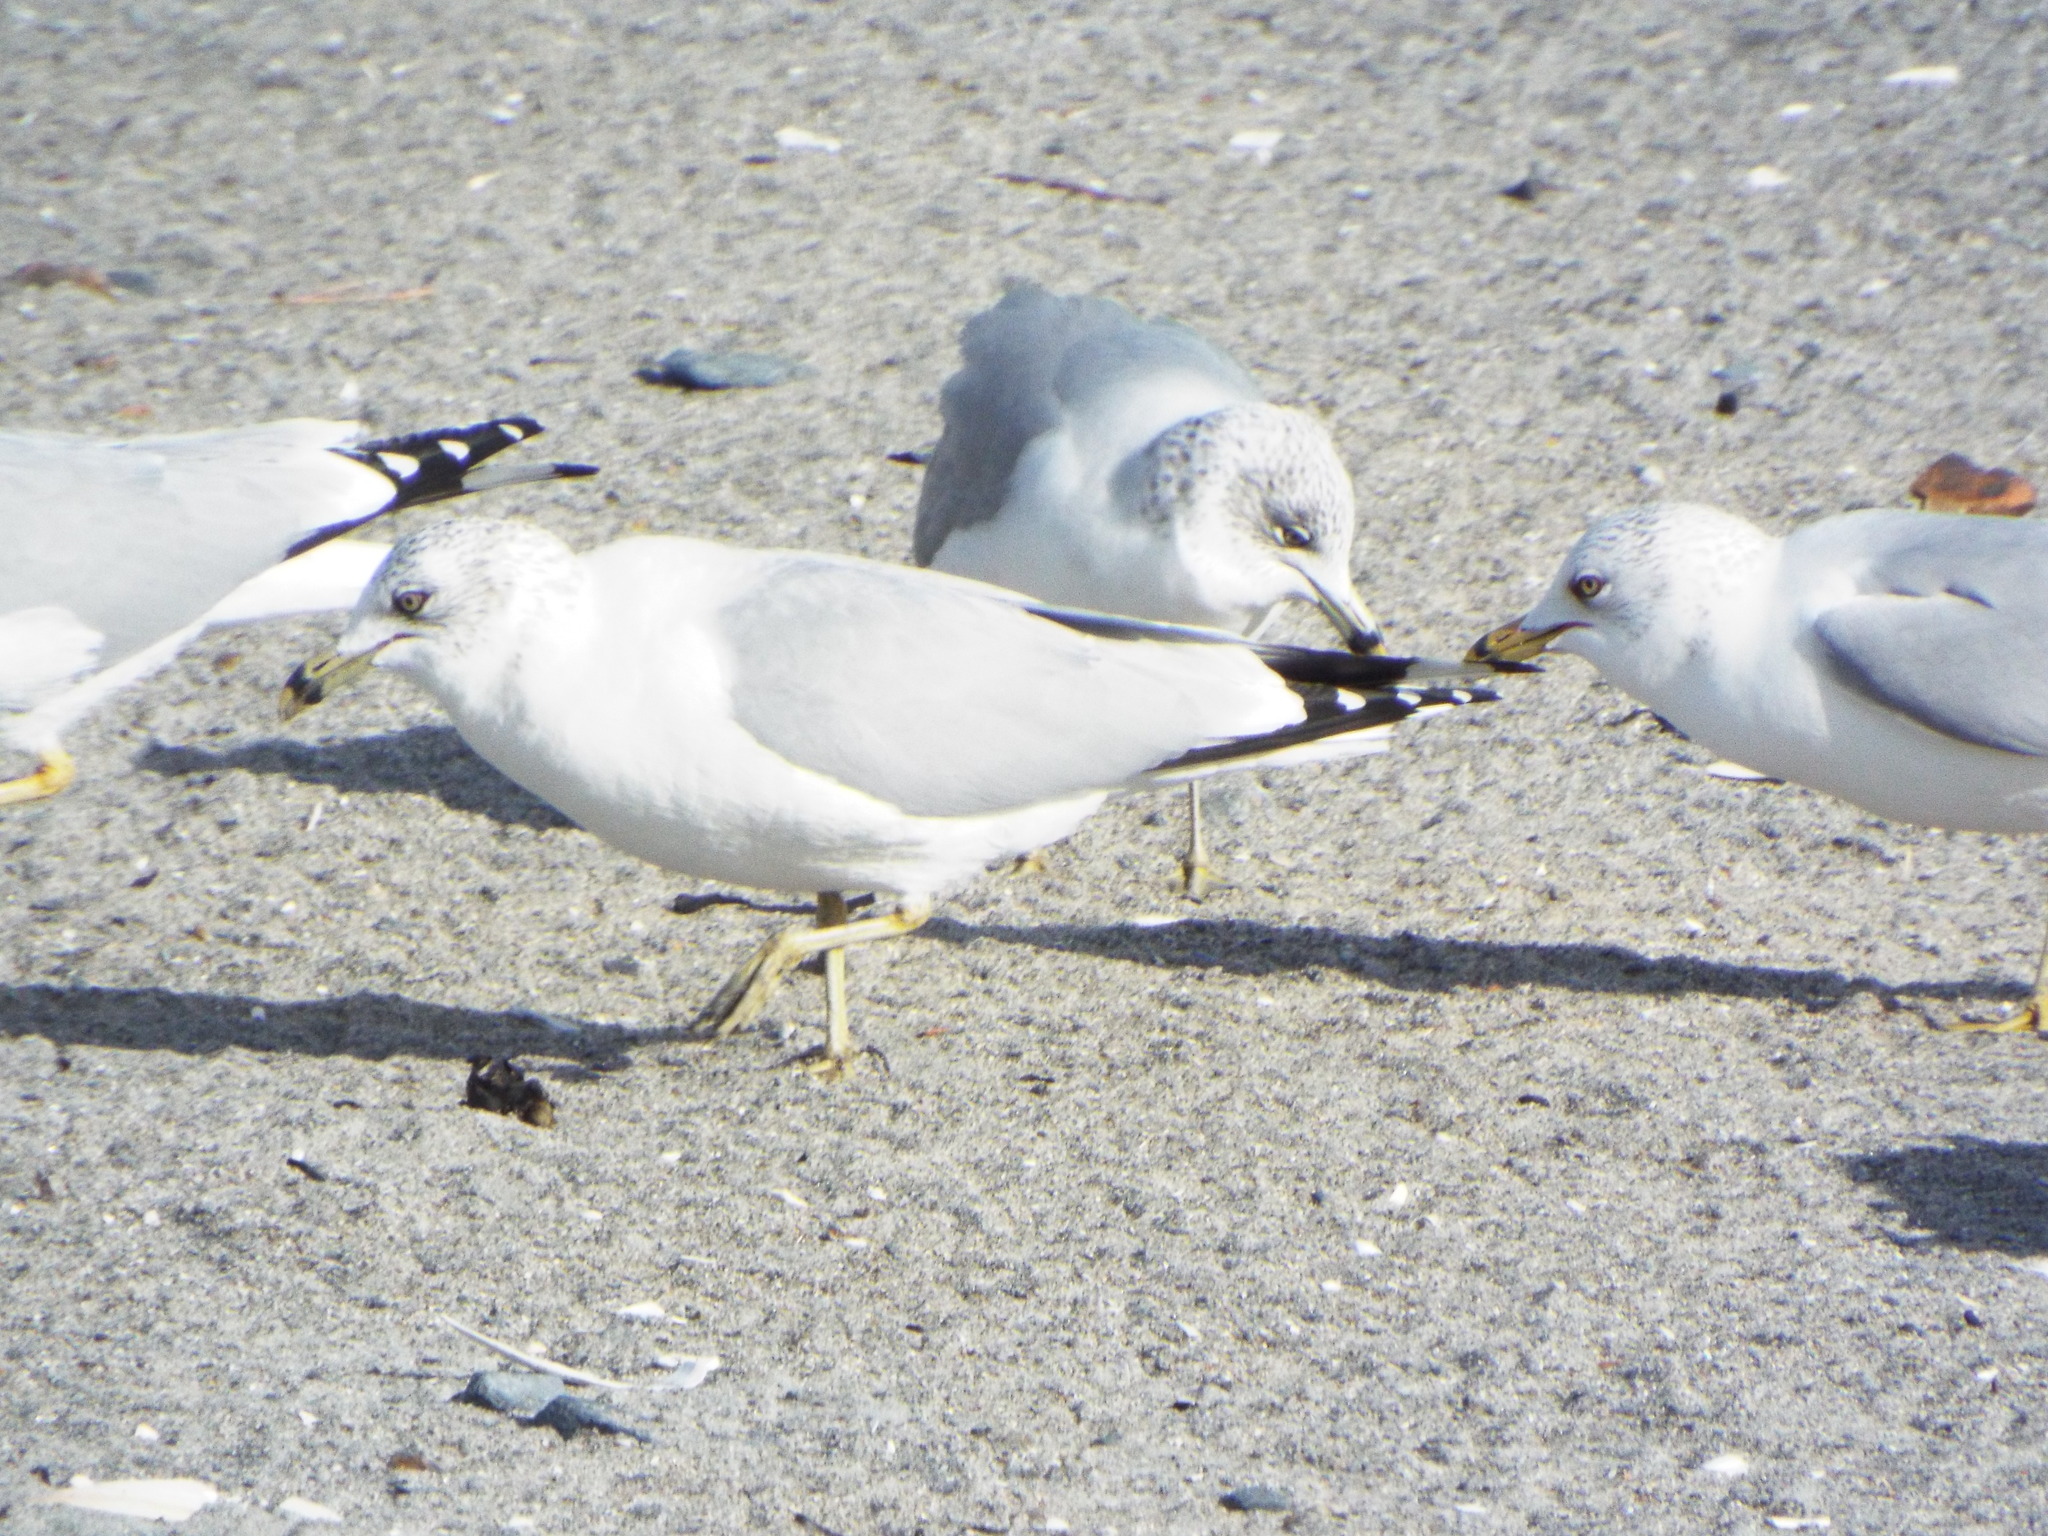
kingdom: Animalia
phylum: Chordata
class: Aves
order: Charadriiformes
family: Laridae
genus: Larus
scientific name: Larus delawarensis
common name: Ring-billed gull
